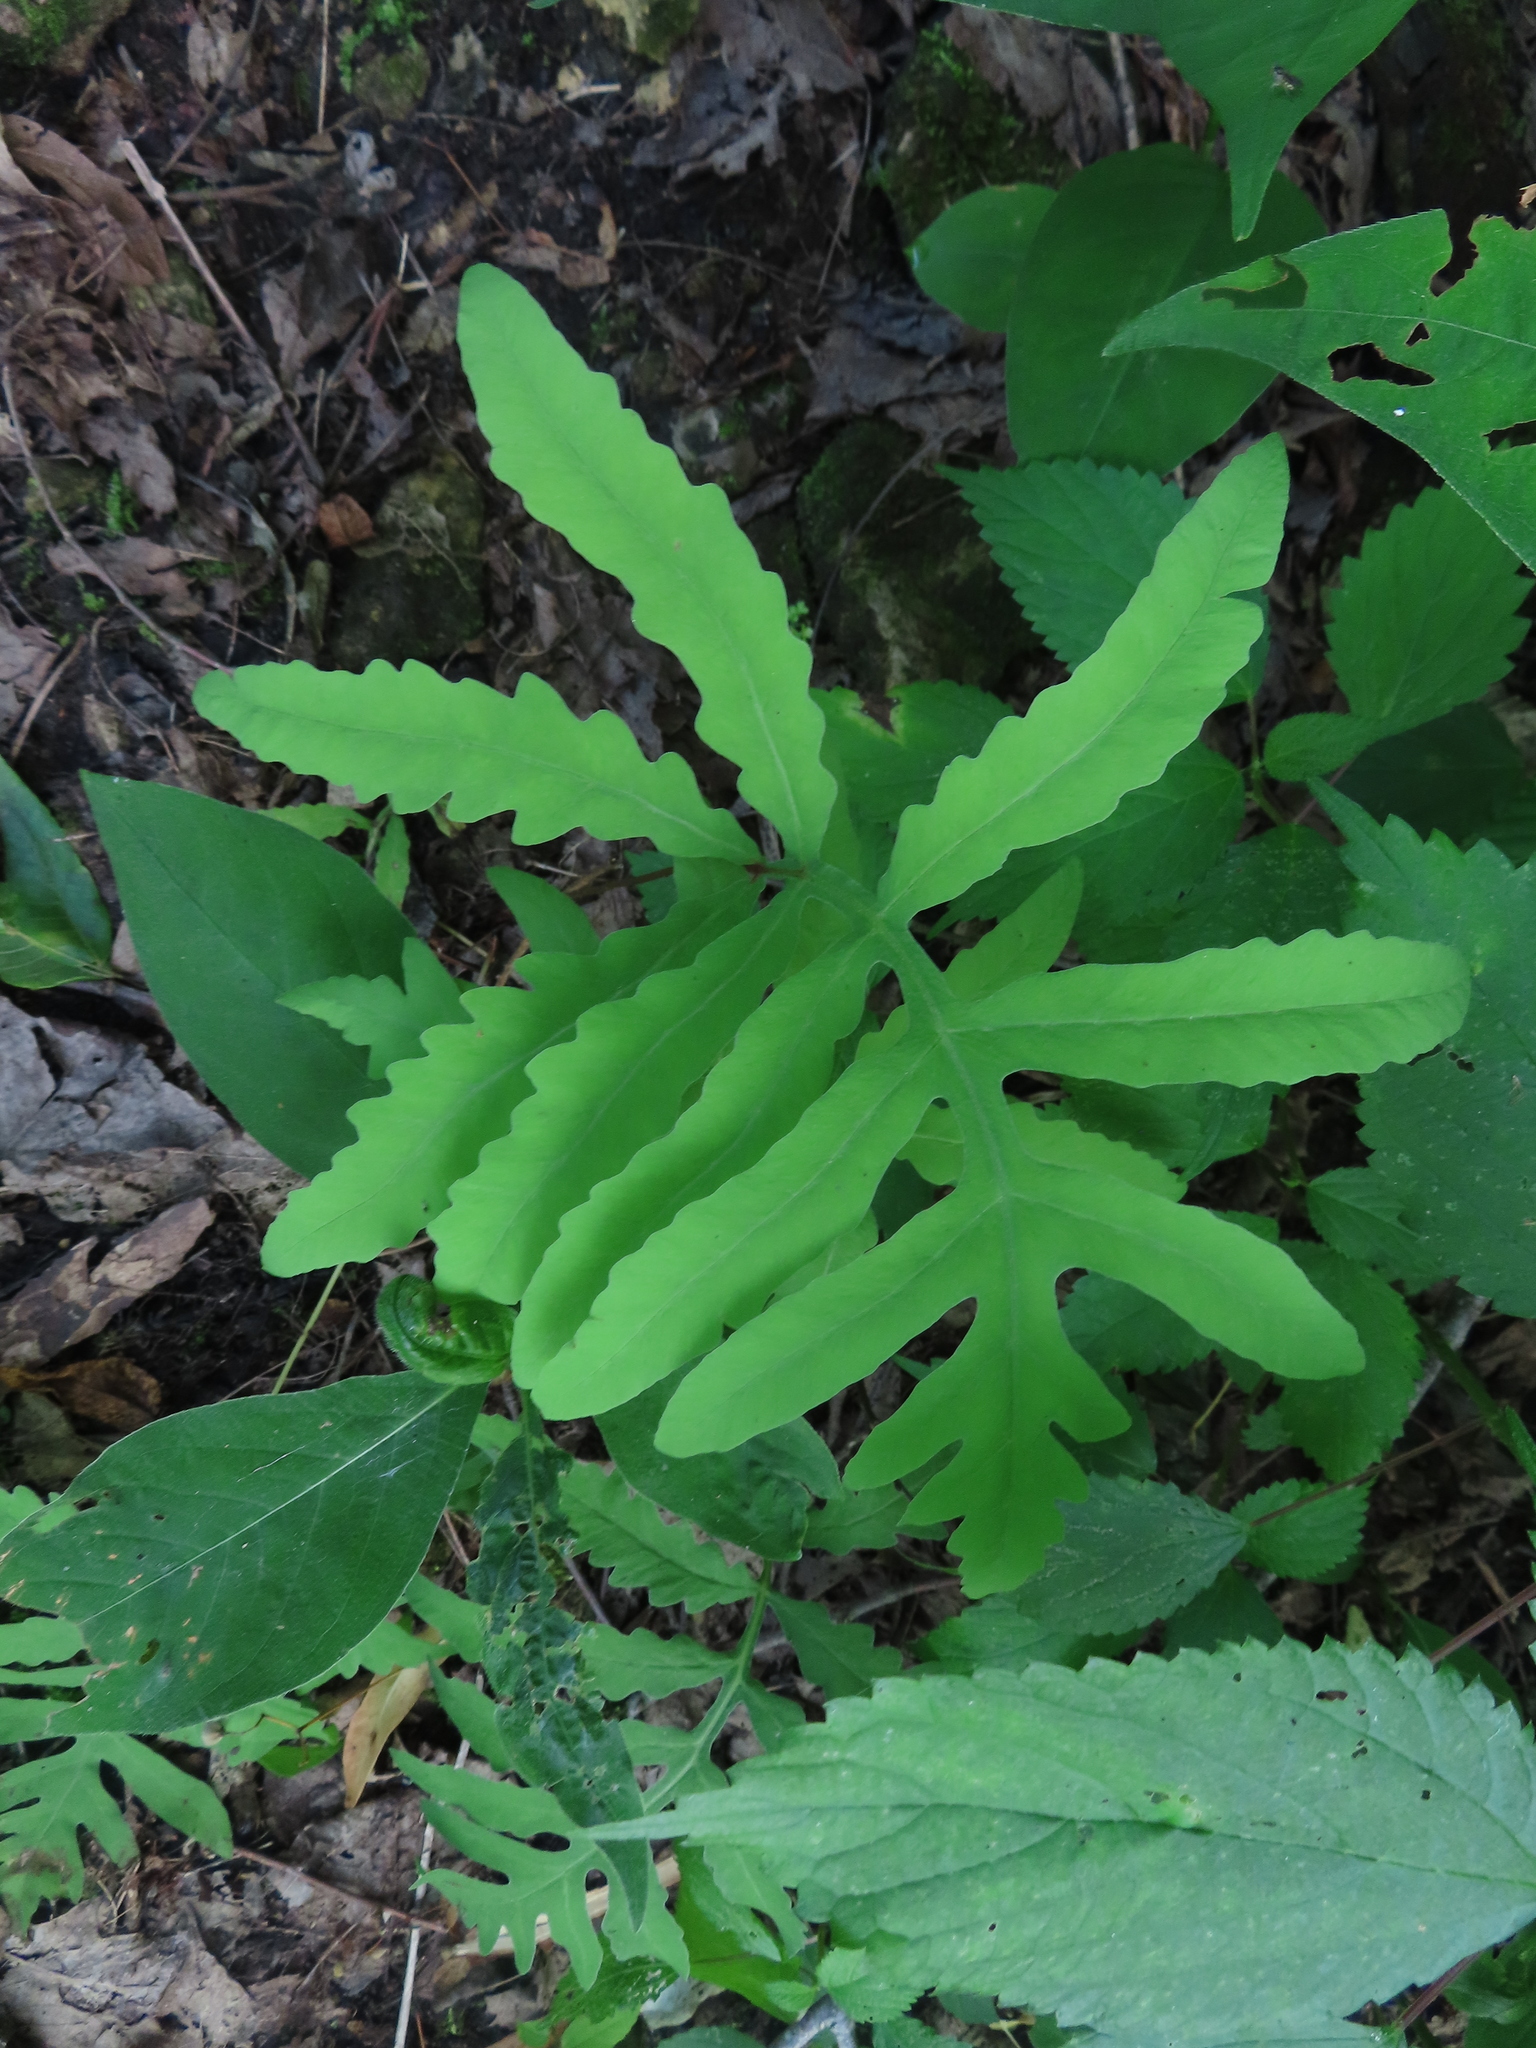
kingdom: Plantae
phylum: Tracheophyta
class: Polypodiopsida
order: Polypodiales
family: Onocleaceae
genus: Onoclea
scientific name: Onoclea sensibilis
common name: Sensitive fern
